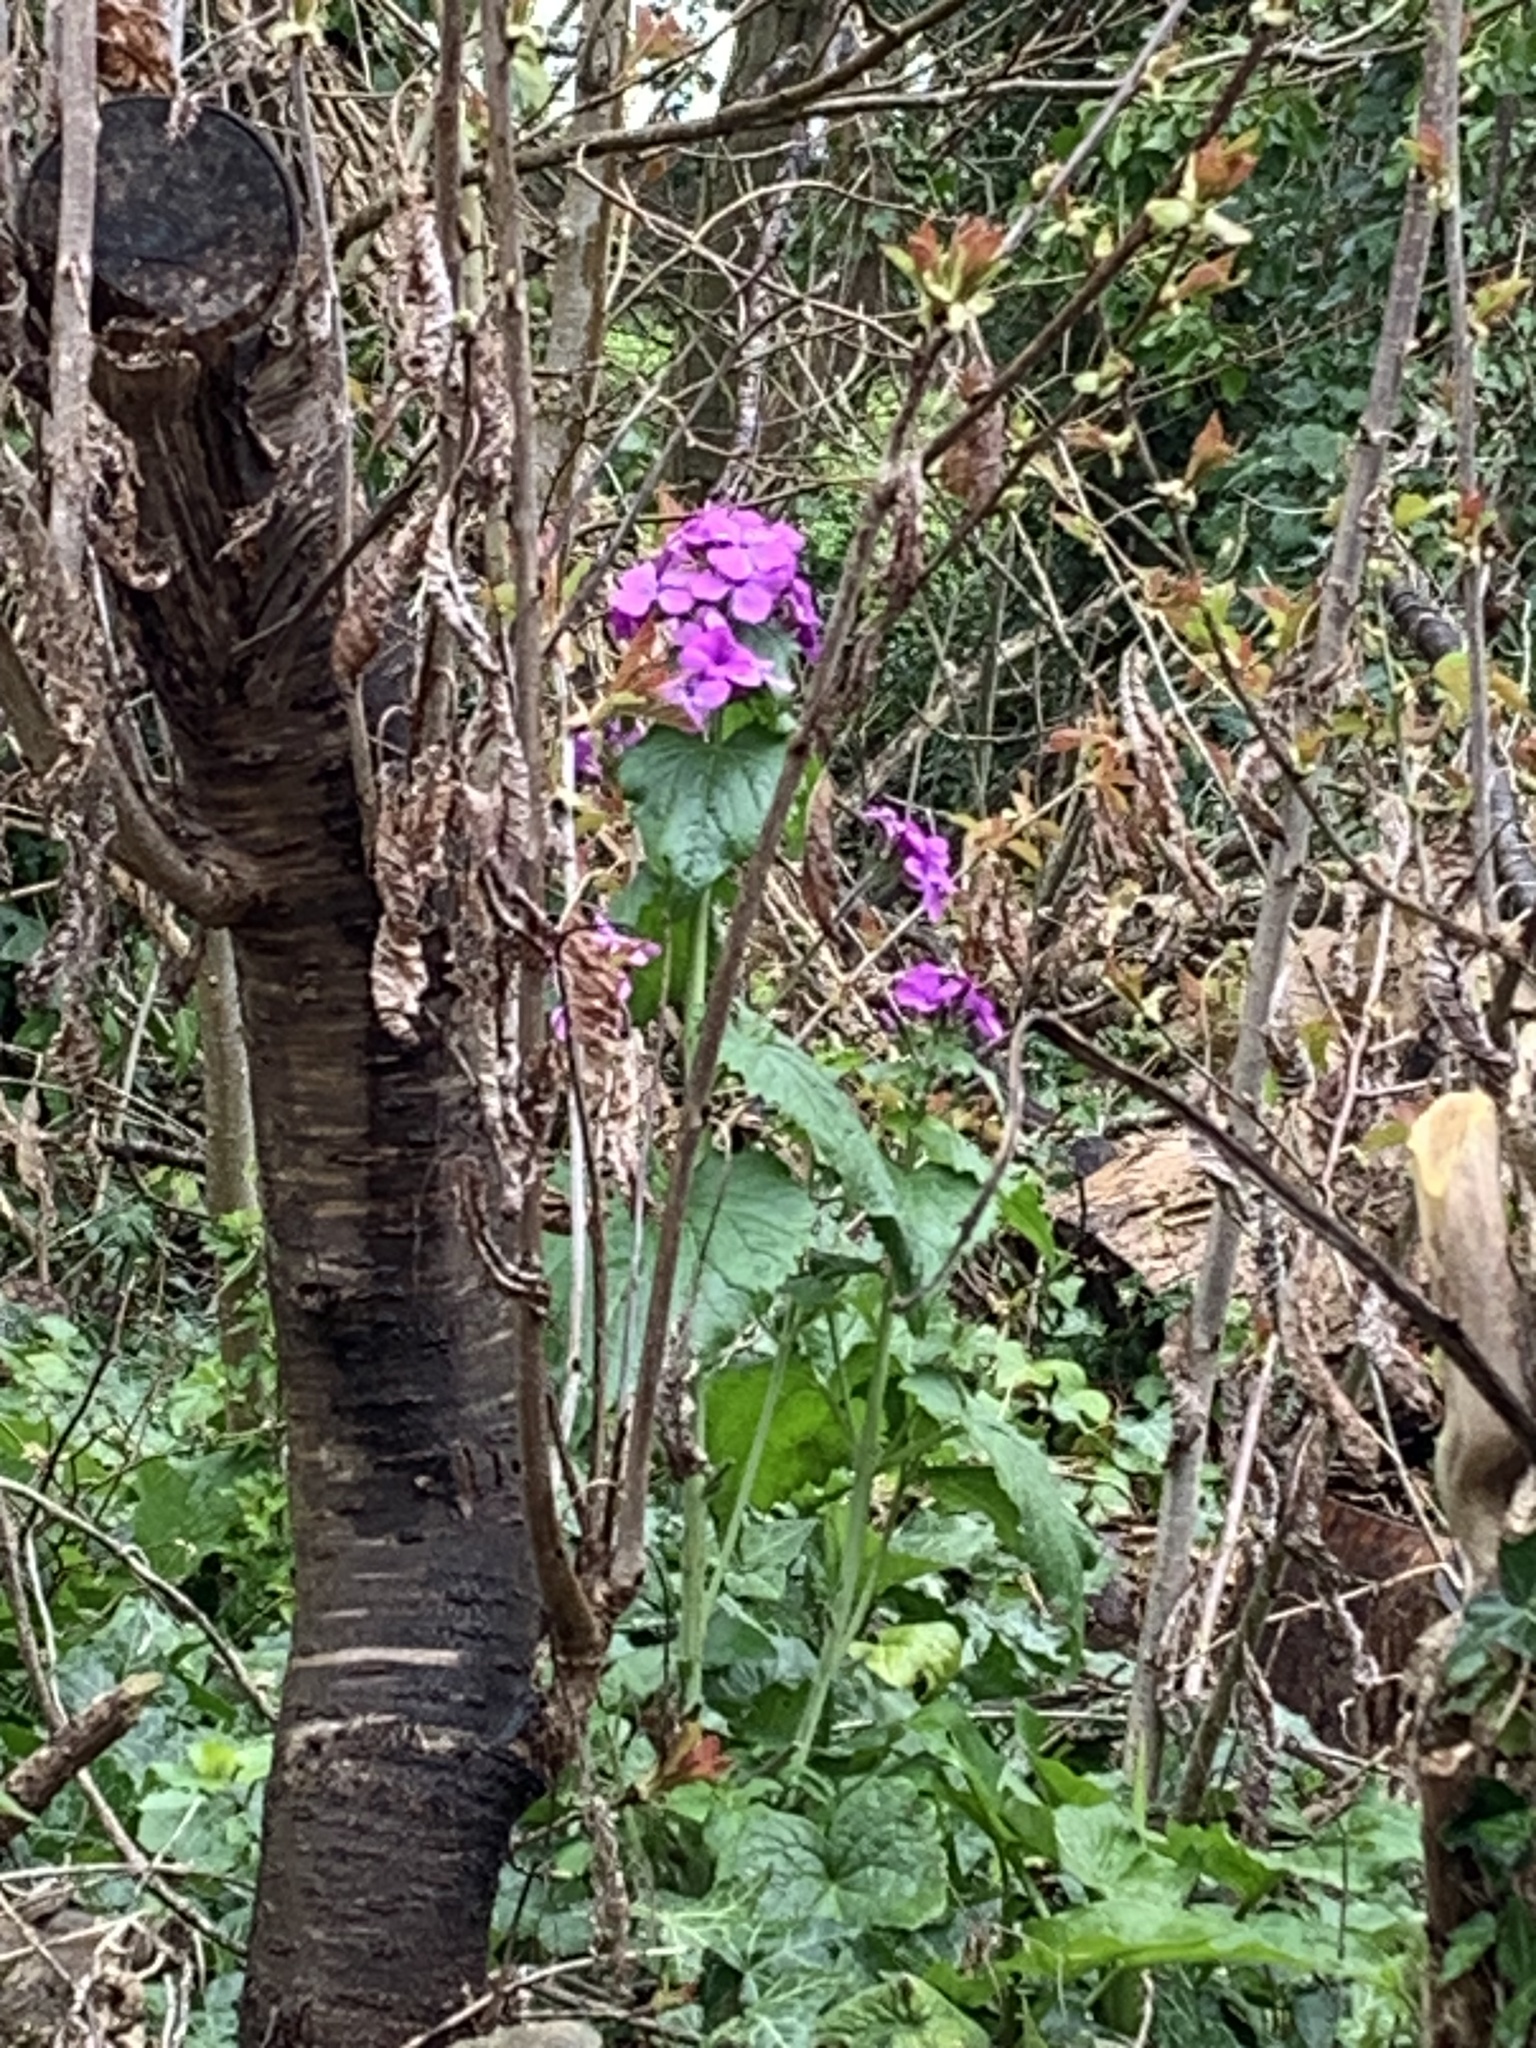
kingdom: Plantae
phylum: Tracheophyta
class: Magnoliopsida
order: Brassicales
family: Brassicaceae
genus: Lunaria
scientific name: Lunaria annua
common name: Honesty
